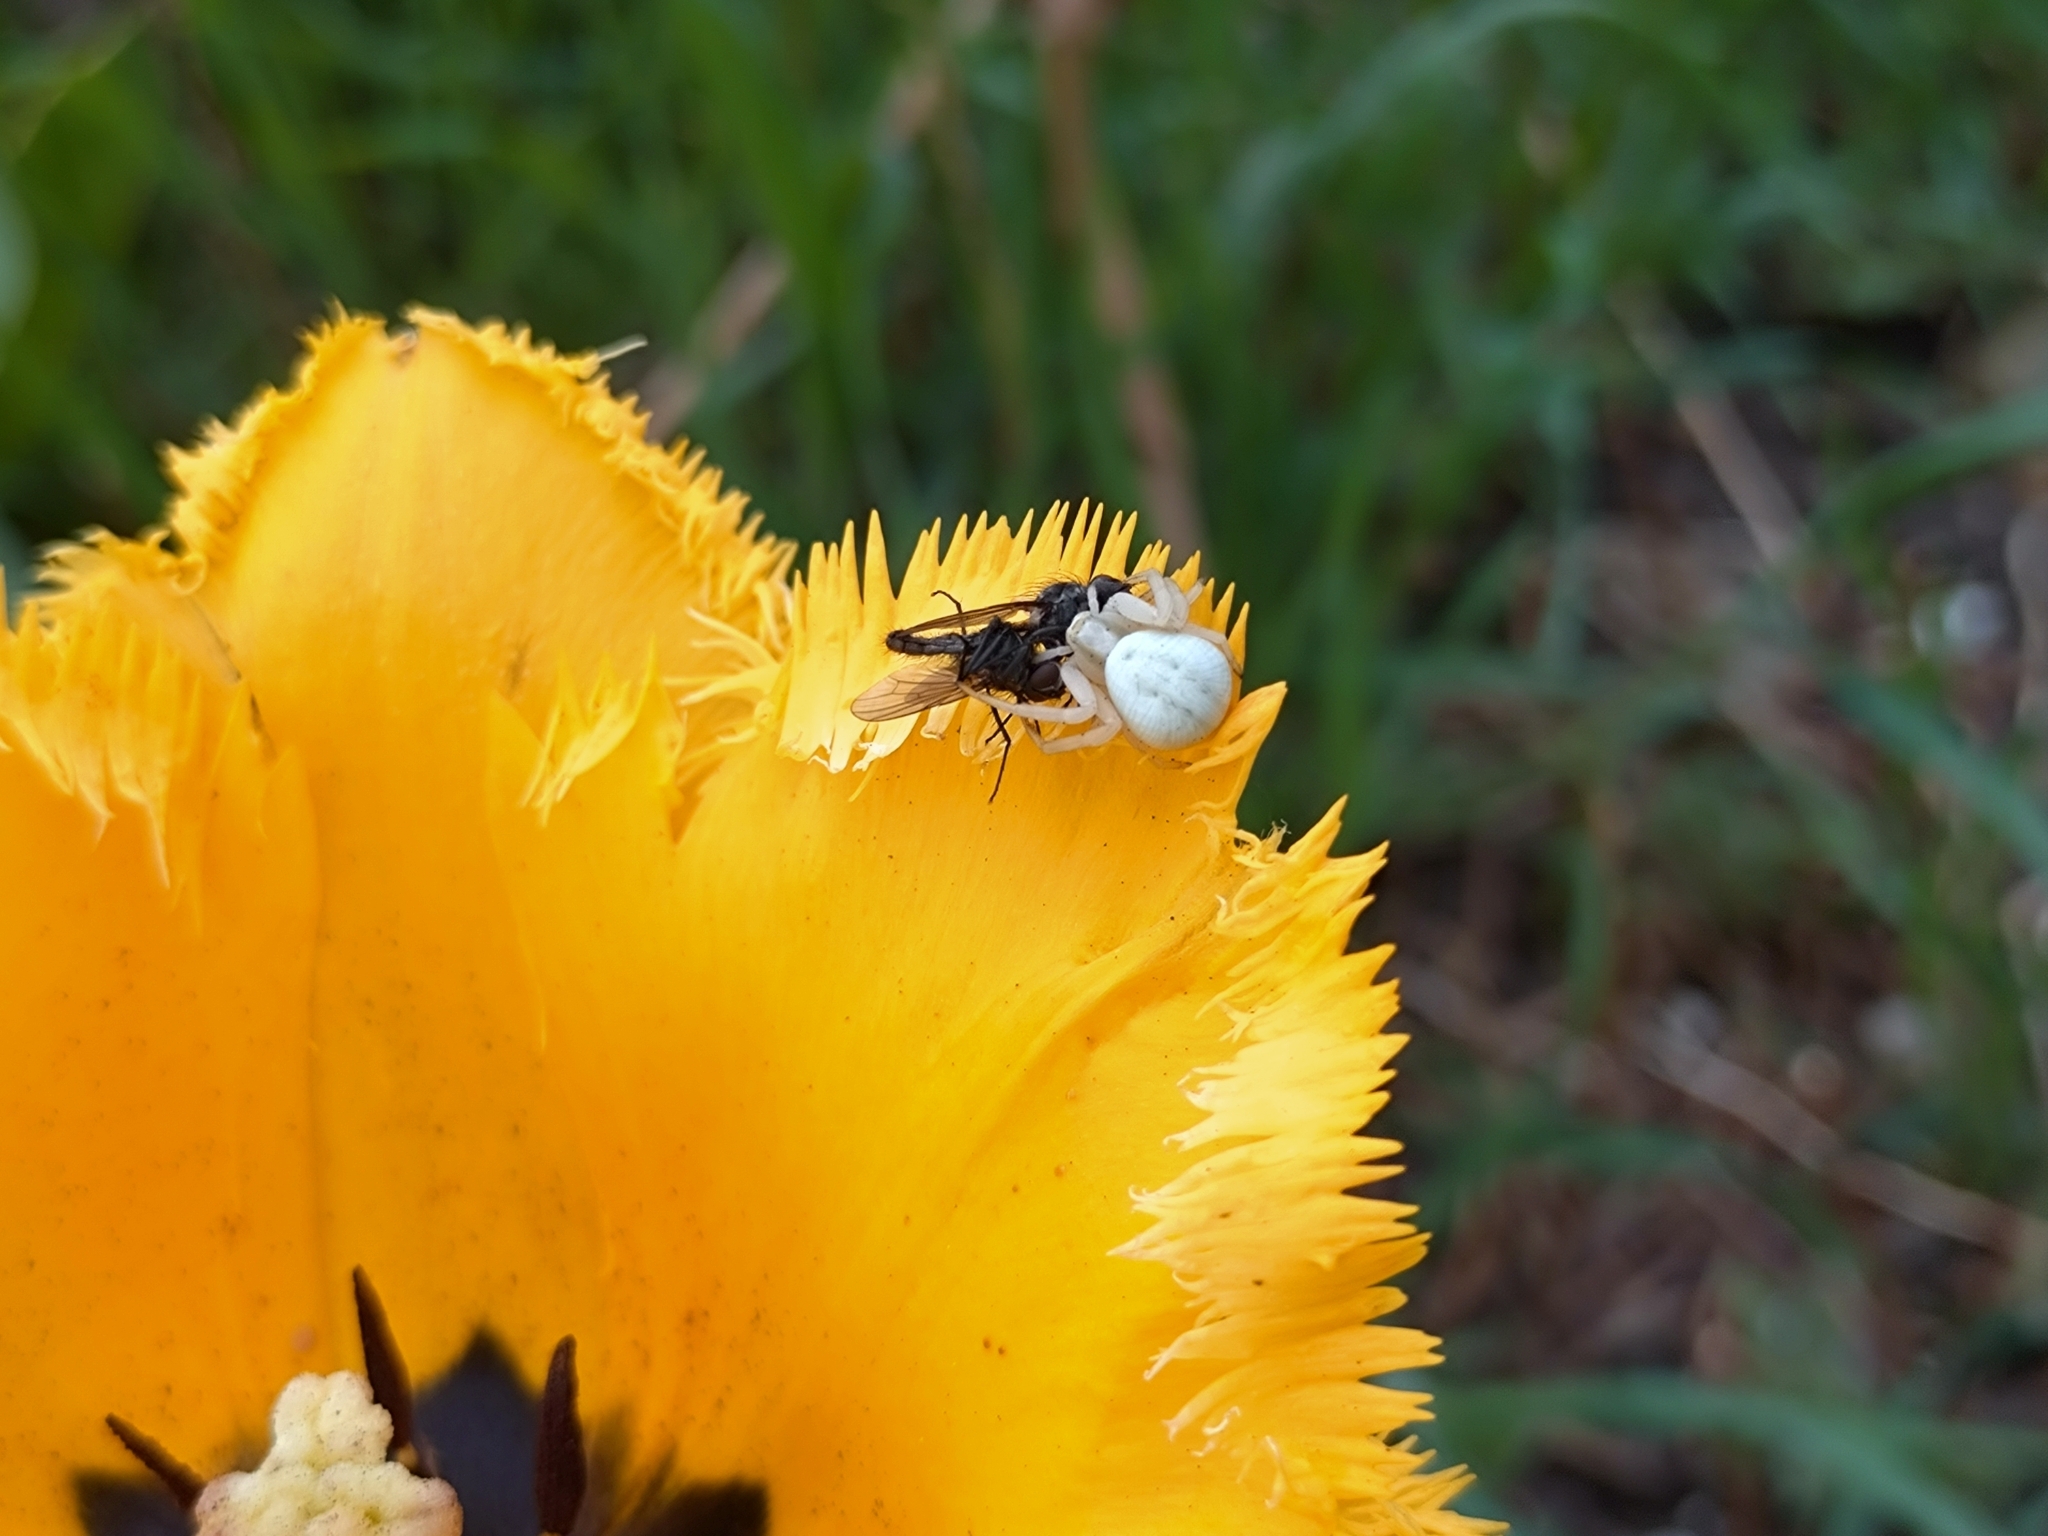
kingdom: Animalia
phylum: Arthropoda
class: Arachnida
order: Araneae
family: Thomisidae
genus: Misumena
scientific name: Misumena vatia
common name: Goldenrod crab spider
